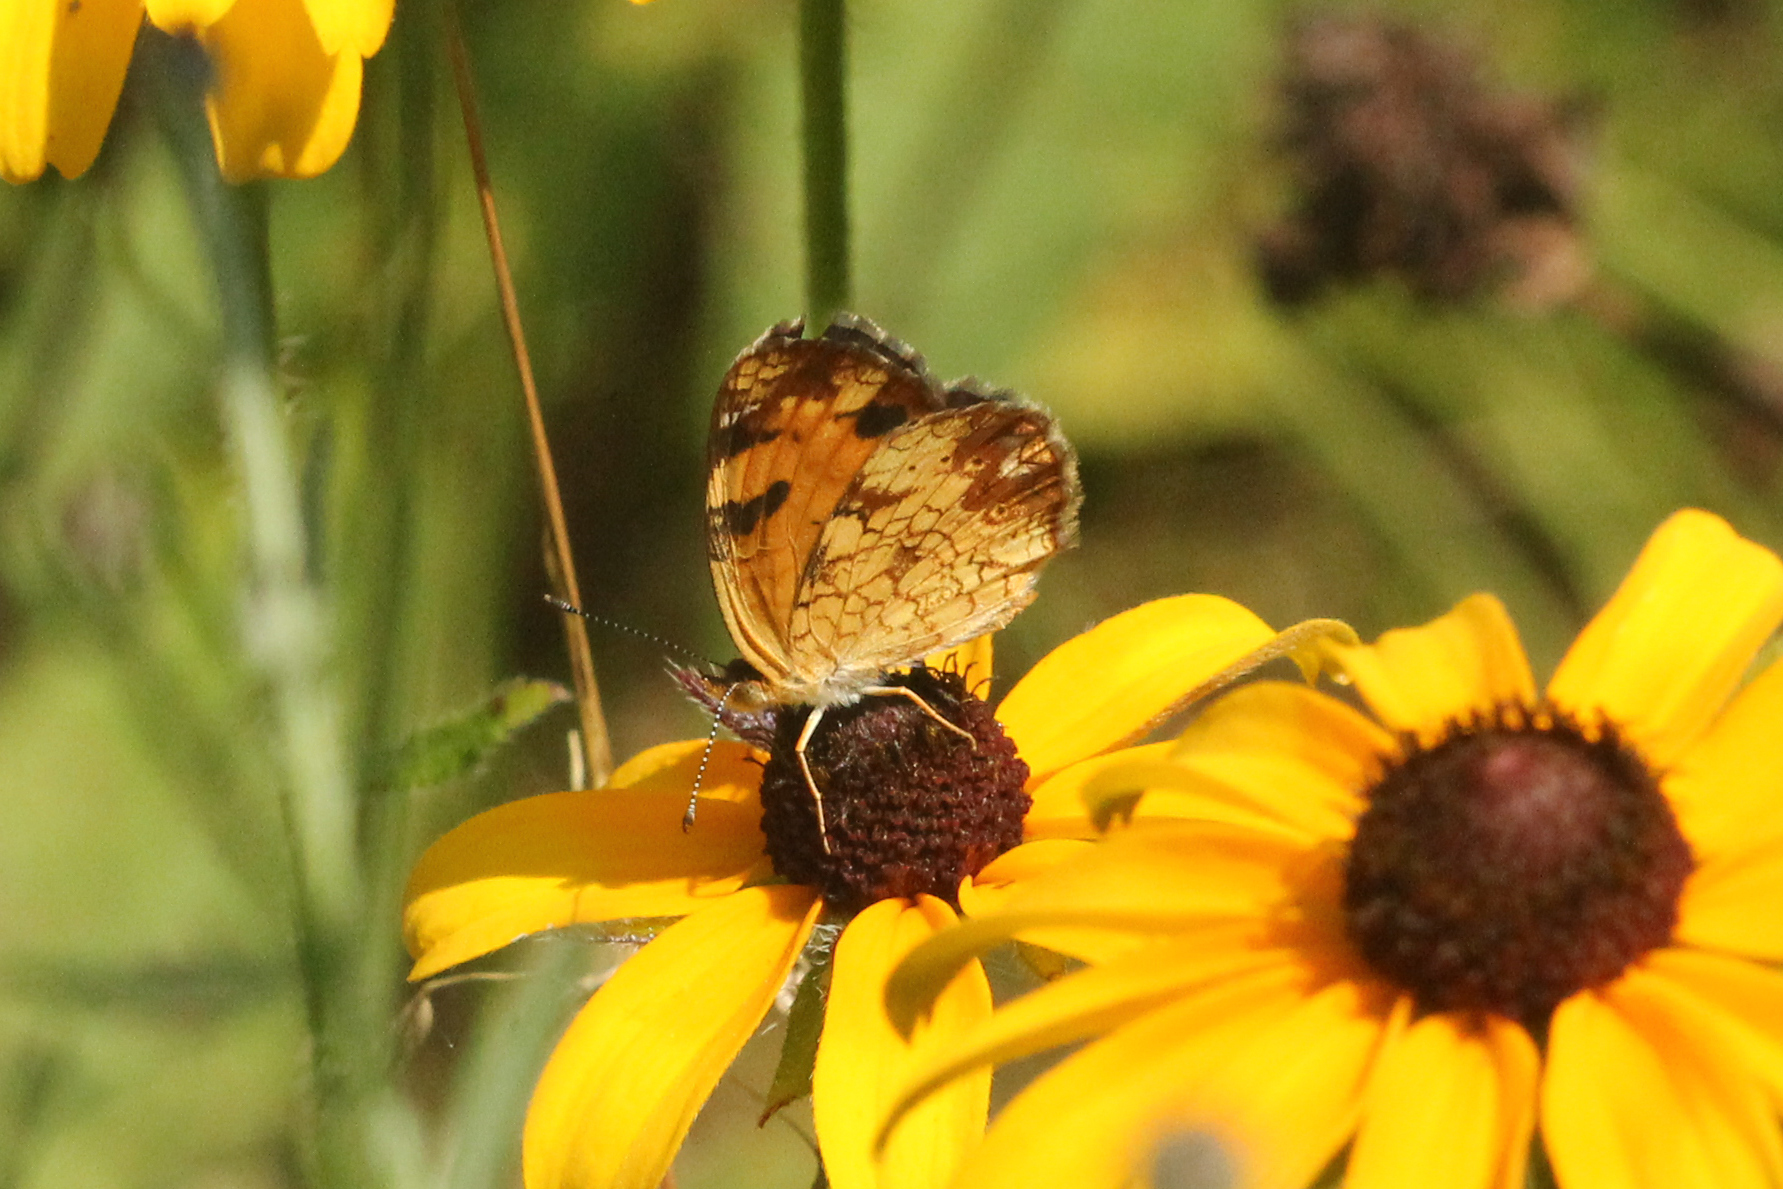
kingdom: Animalia
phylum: Arthropoda
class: Insecta
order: Lepidoptera
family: Nymphalidae
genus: Phyciodes
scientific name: Phyciodes tharos
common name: Pearl crescent
